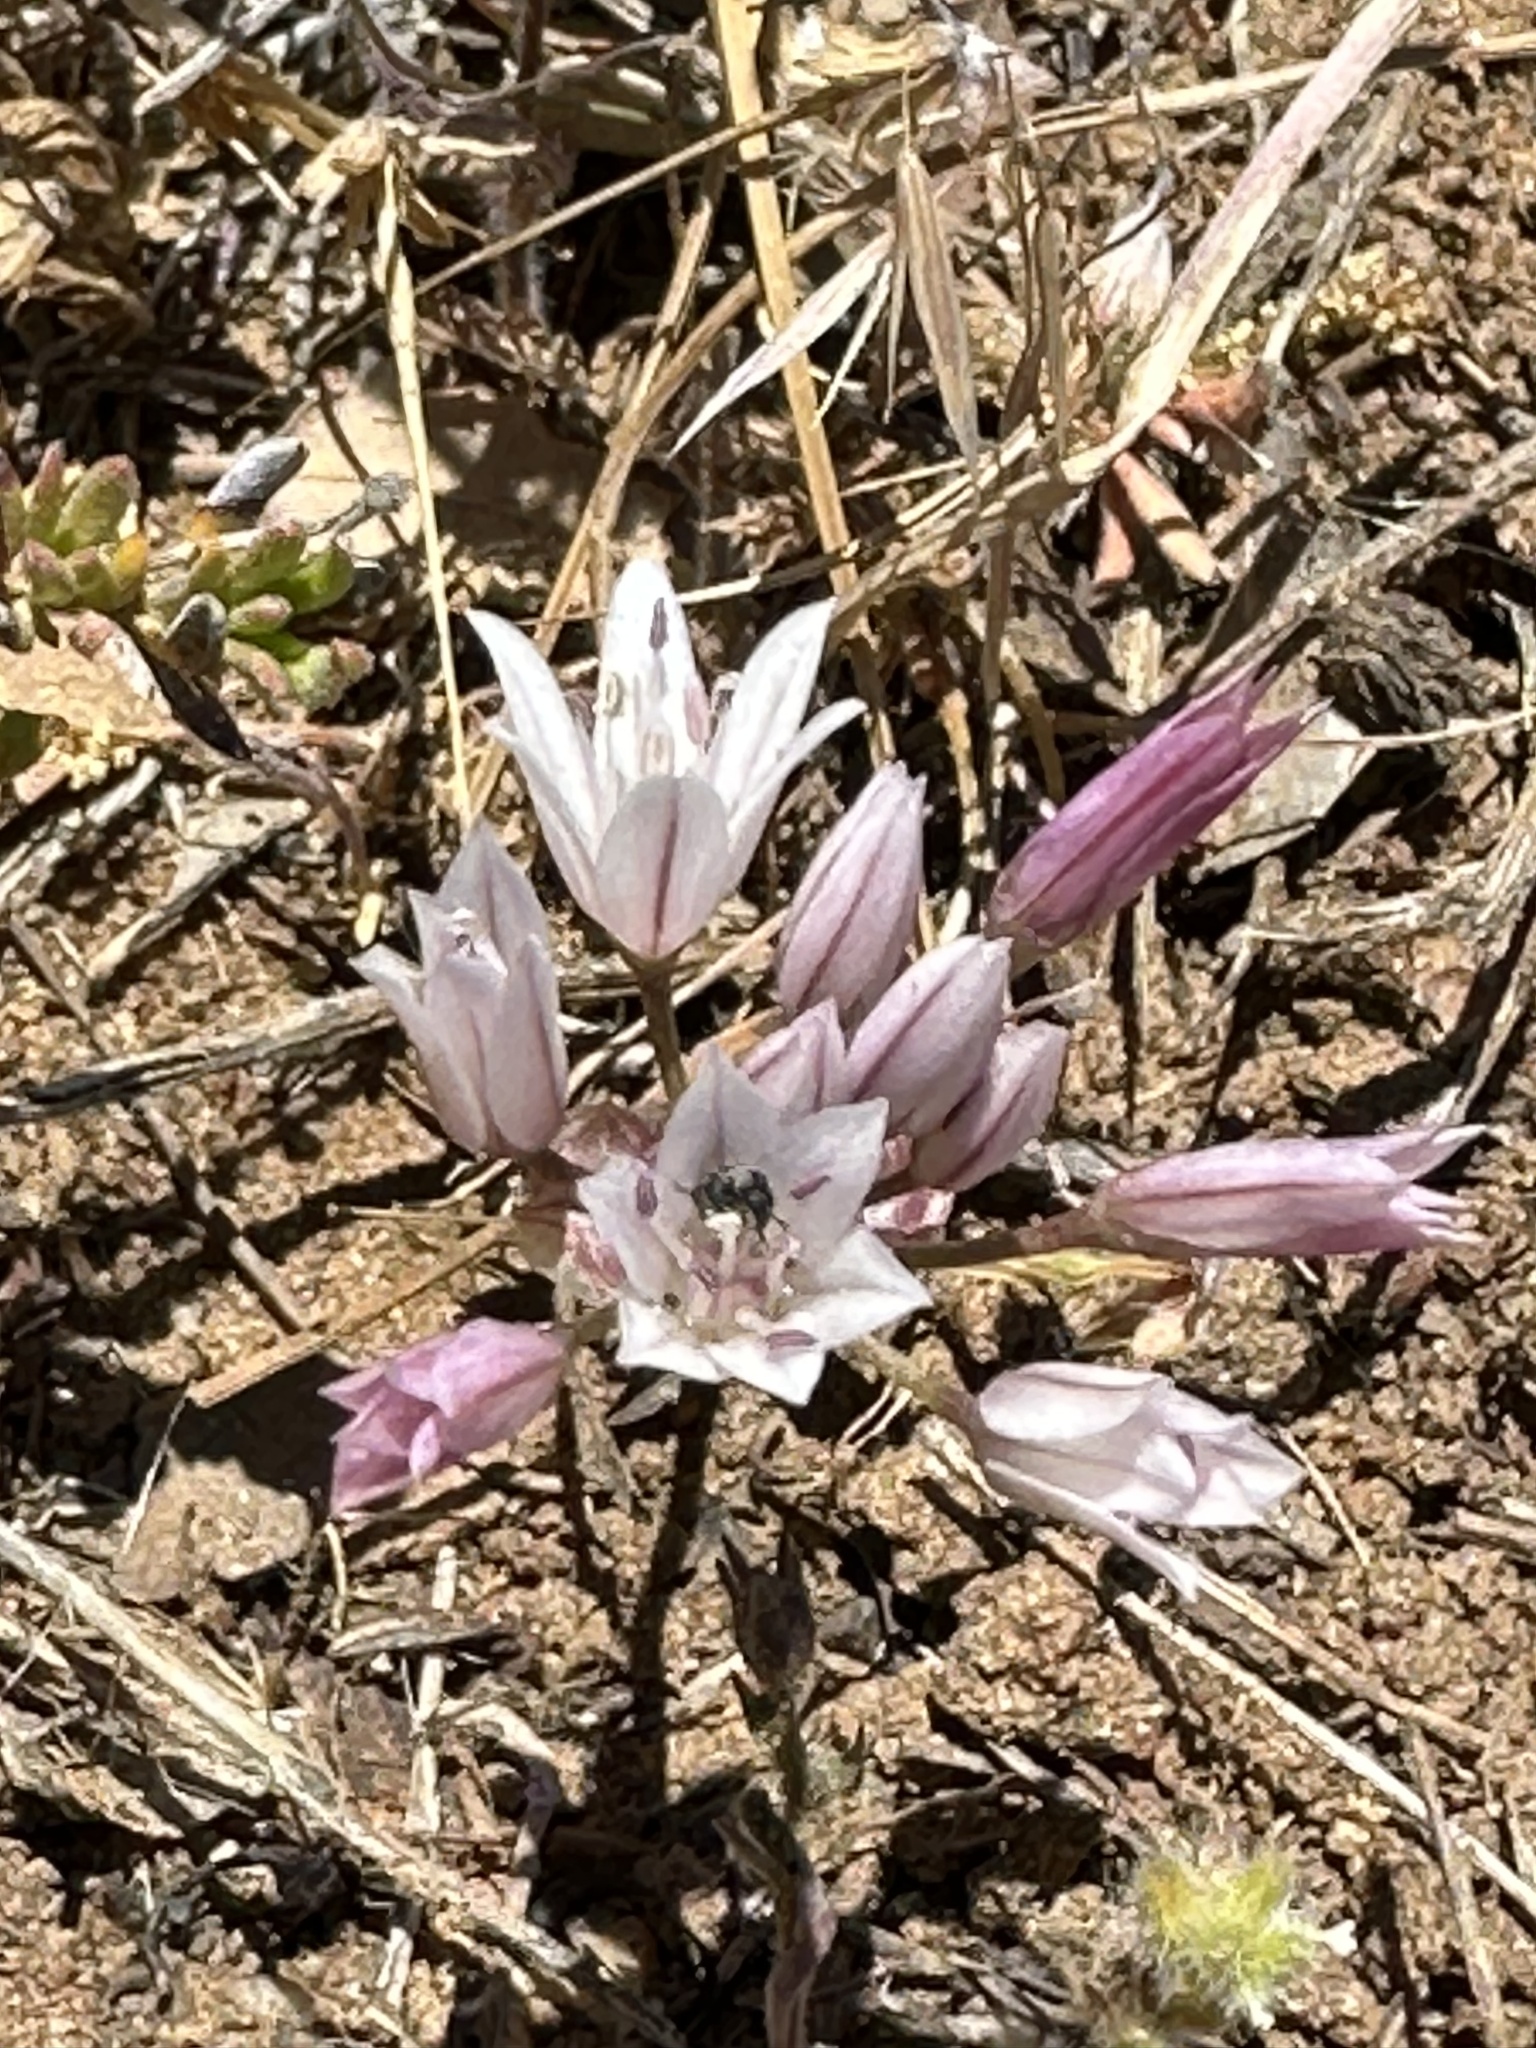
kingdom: Plantae
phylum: Tracheophyta
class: Liliopsida
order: Asparagales
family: Amaryllidaceae
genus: Allium
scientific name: Allium parryi
